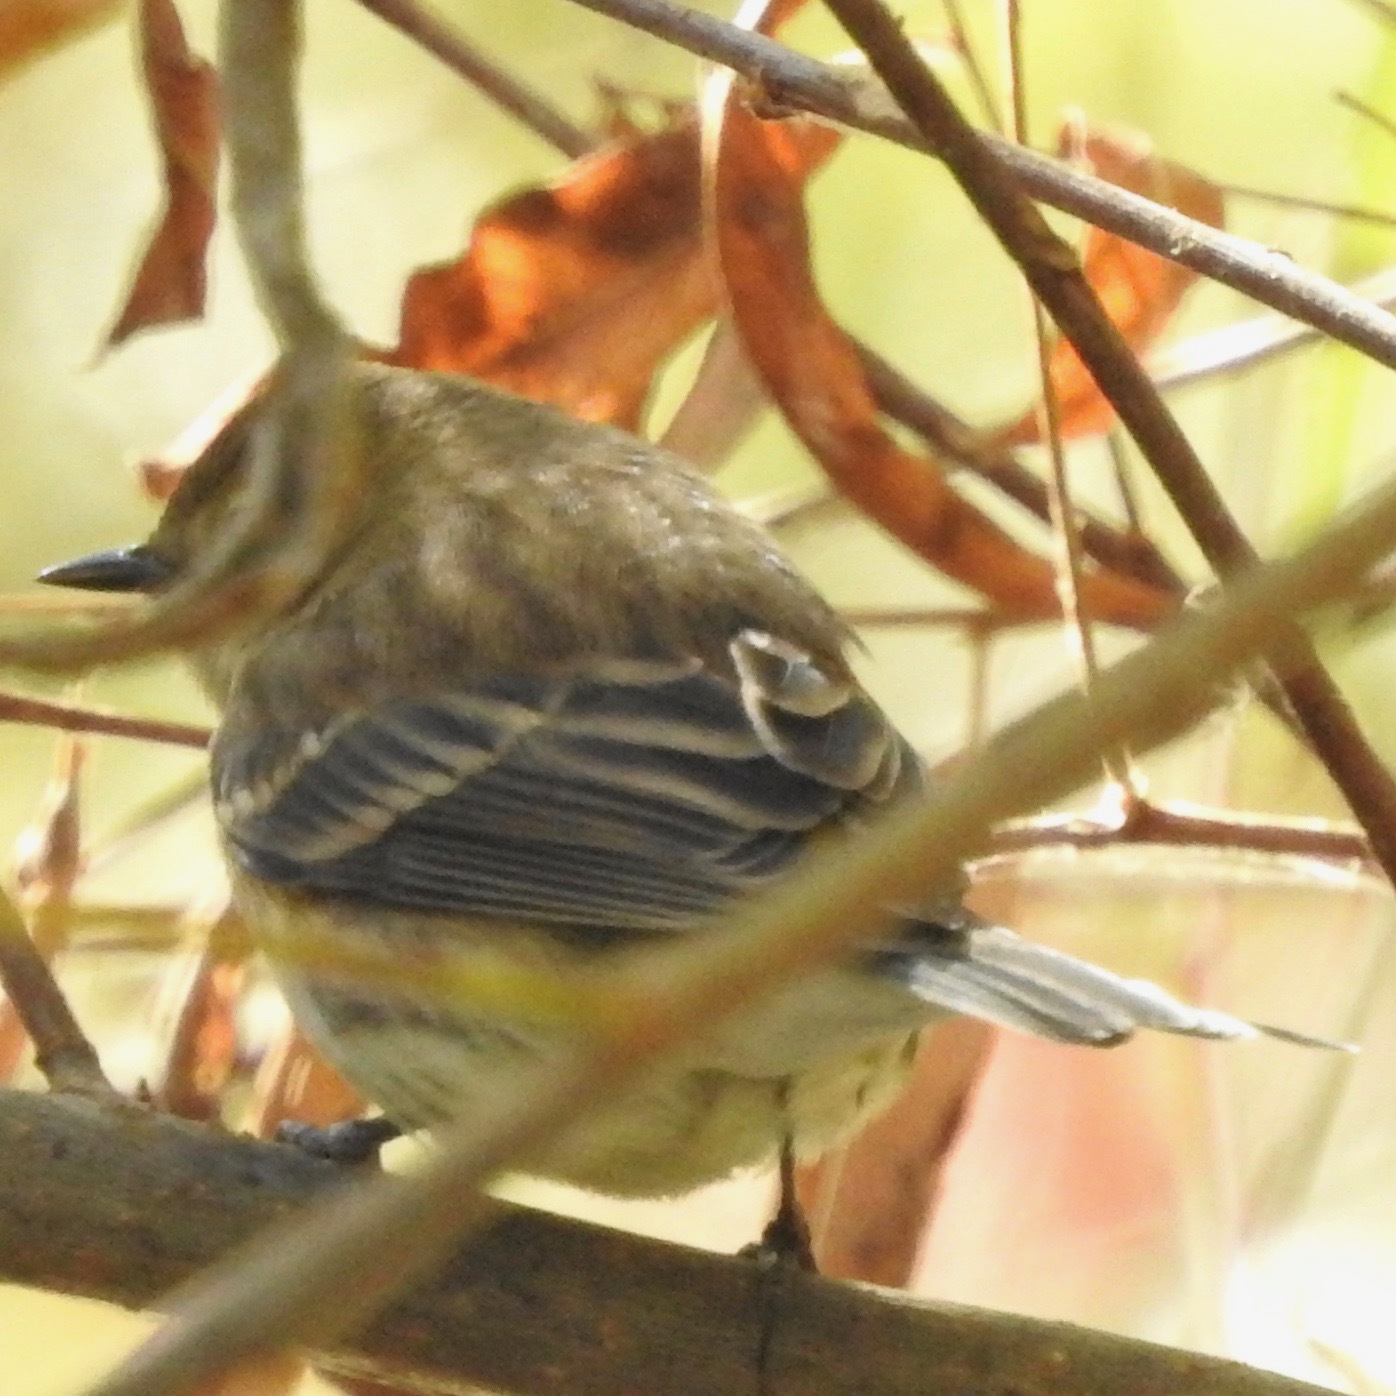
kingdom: Animalia
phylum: Chordata
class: Aves
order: Passeriformes
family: Parulidae
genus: Setophaga
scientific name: Setophaga coronata
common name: Myrtle warbler
